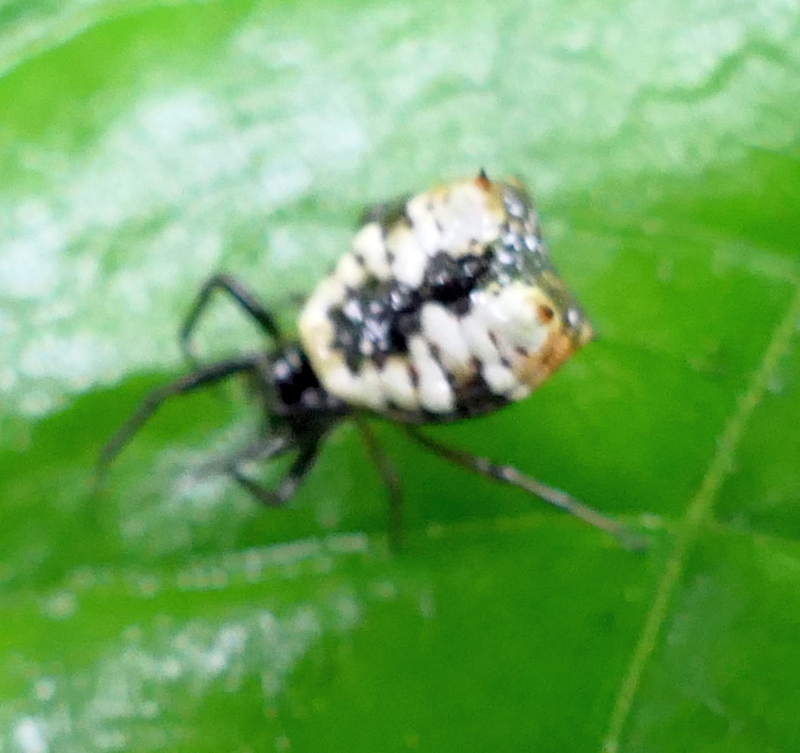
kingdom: Animalia
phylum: Arthropoda
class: Arachnida
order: Araneae
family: Araneidae
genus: Micrathena
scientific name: Micrathena patruelis
